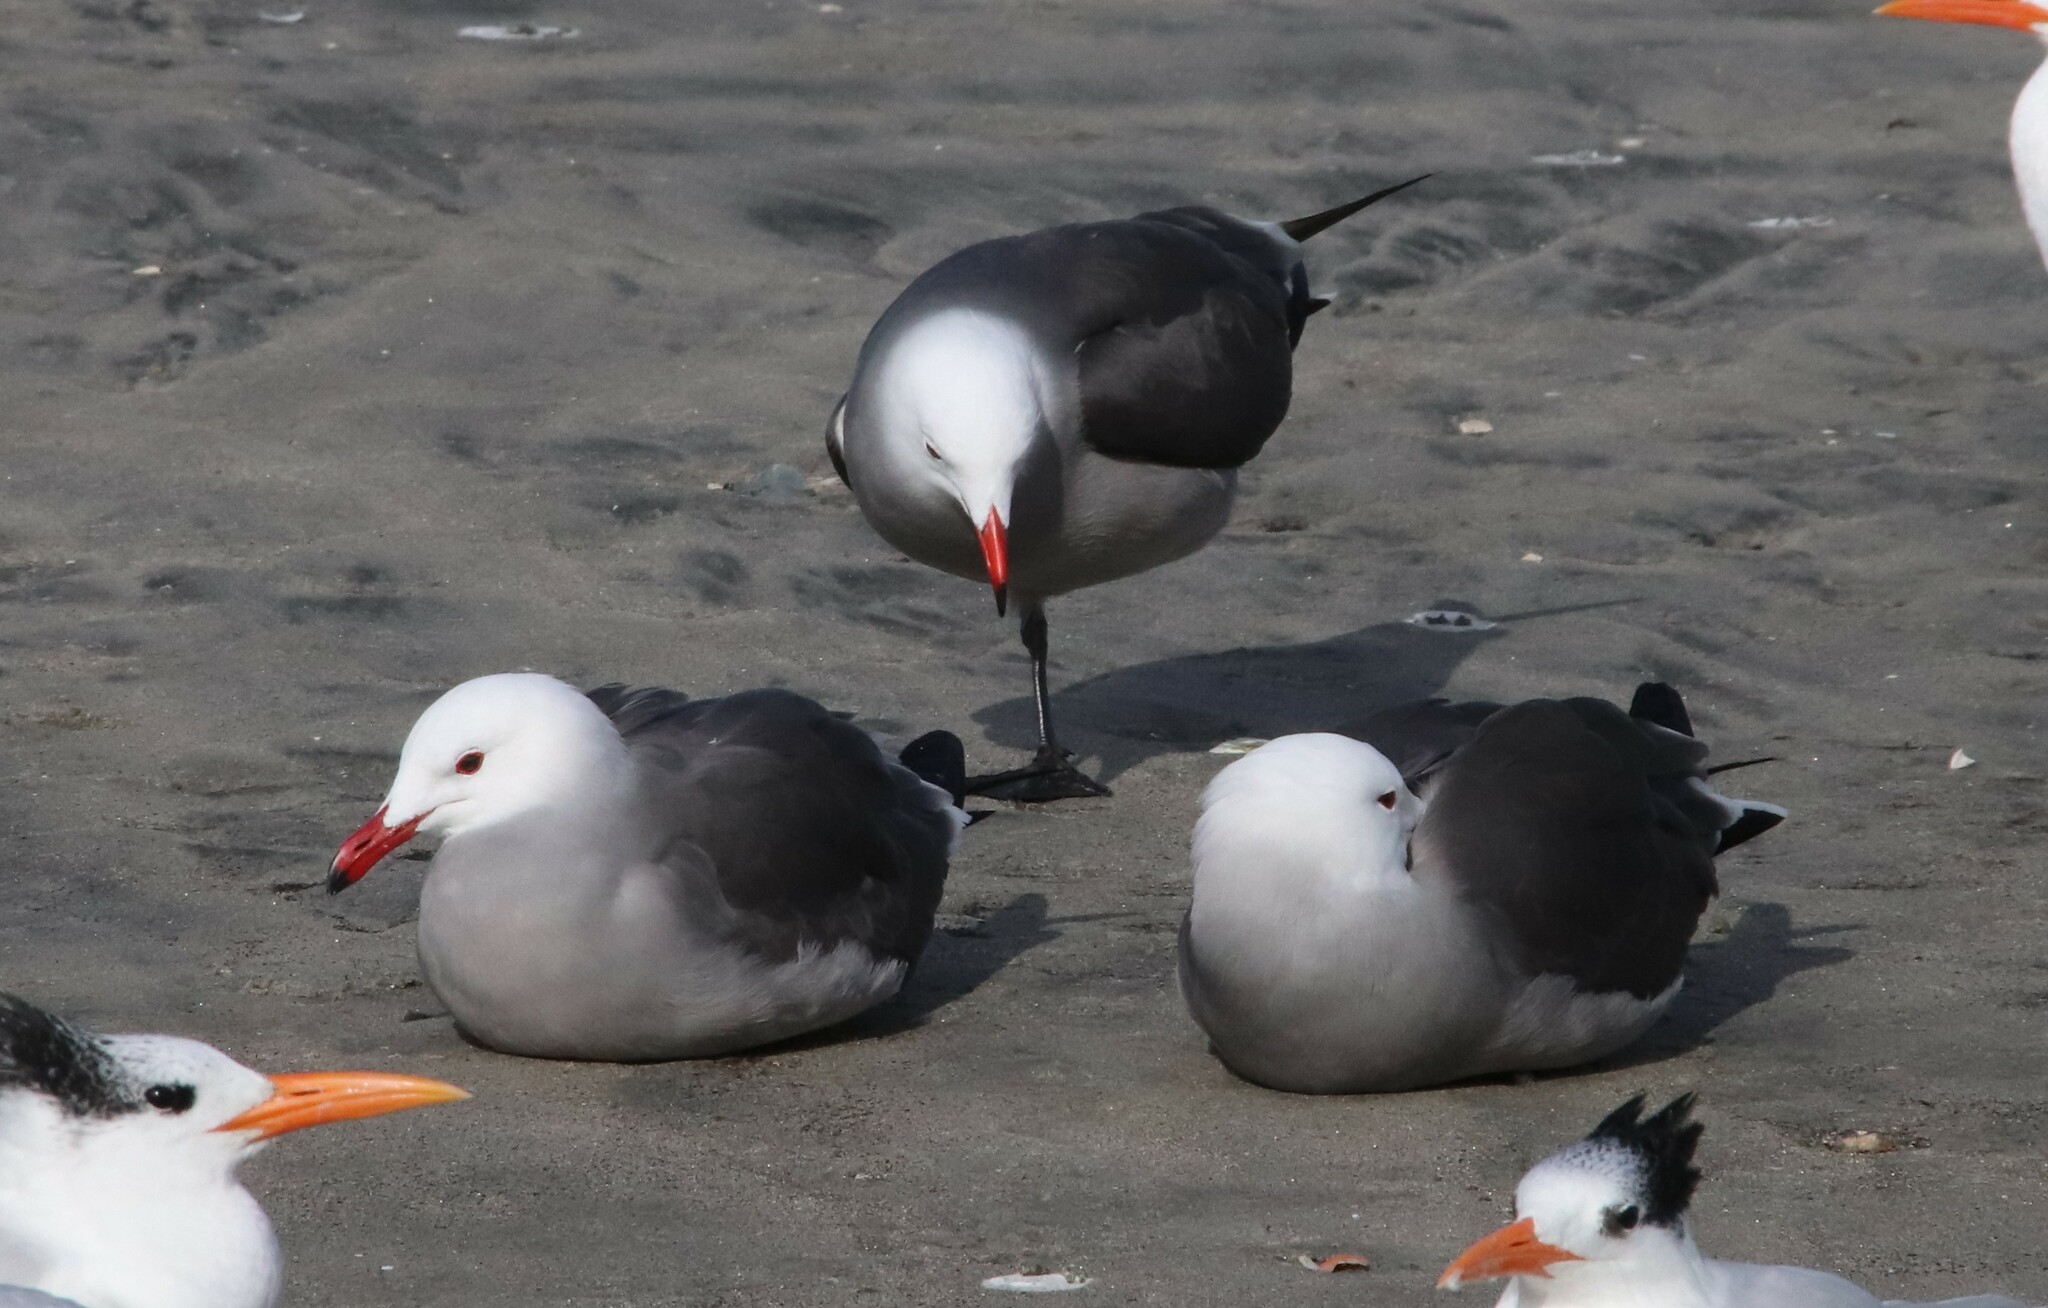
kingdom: Animalia
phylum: Chordata
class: Aves
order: Charadriiformes
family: Laridae
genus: Larus
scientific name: Larus heermanni
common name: Heermann's gull
